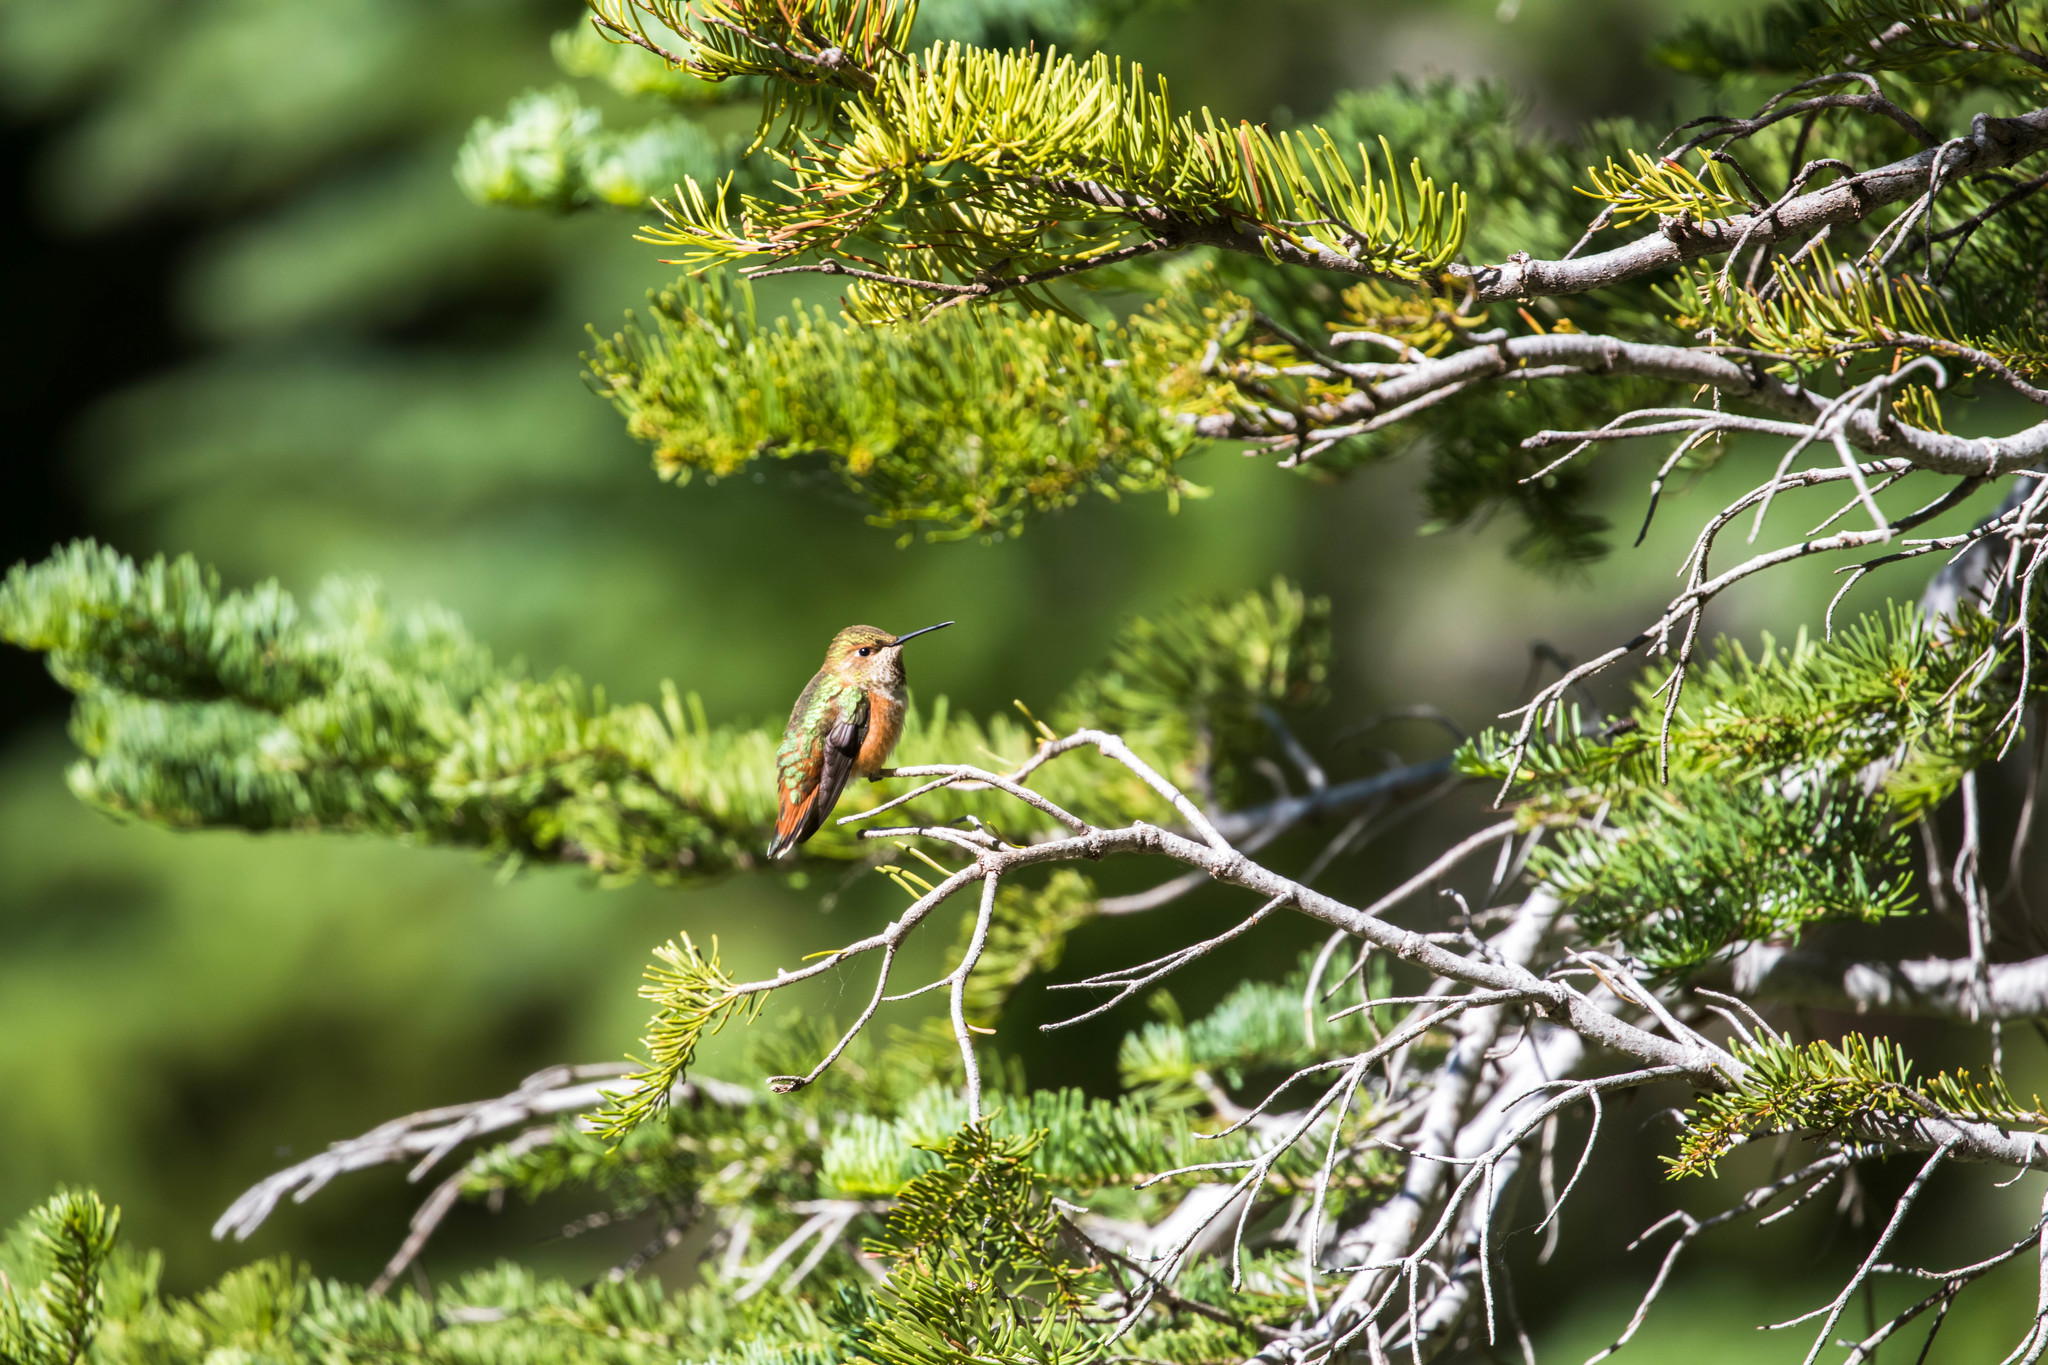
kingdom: Animalia
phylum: Chordata
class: Aves
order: Apodiformes
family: Trochilidae
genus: Selasphorus
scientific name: Selasphorus rufus
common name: Rufous hummingbird
